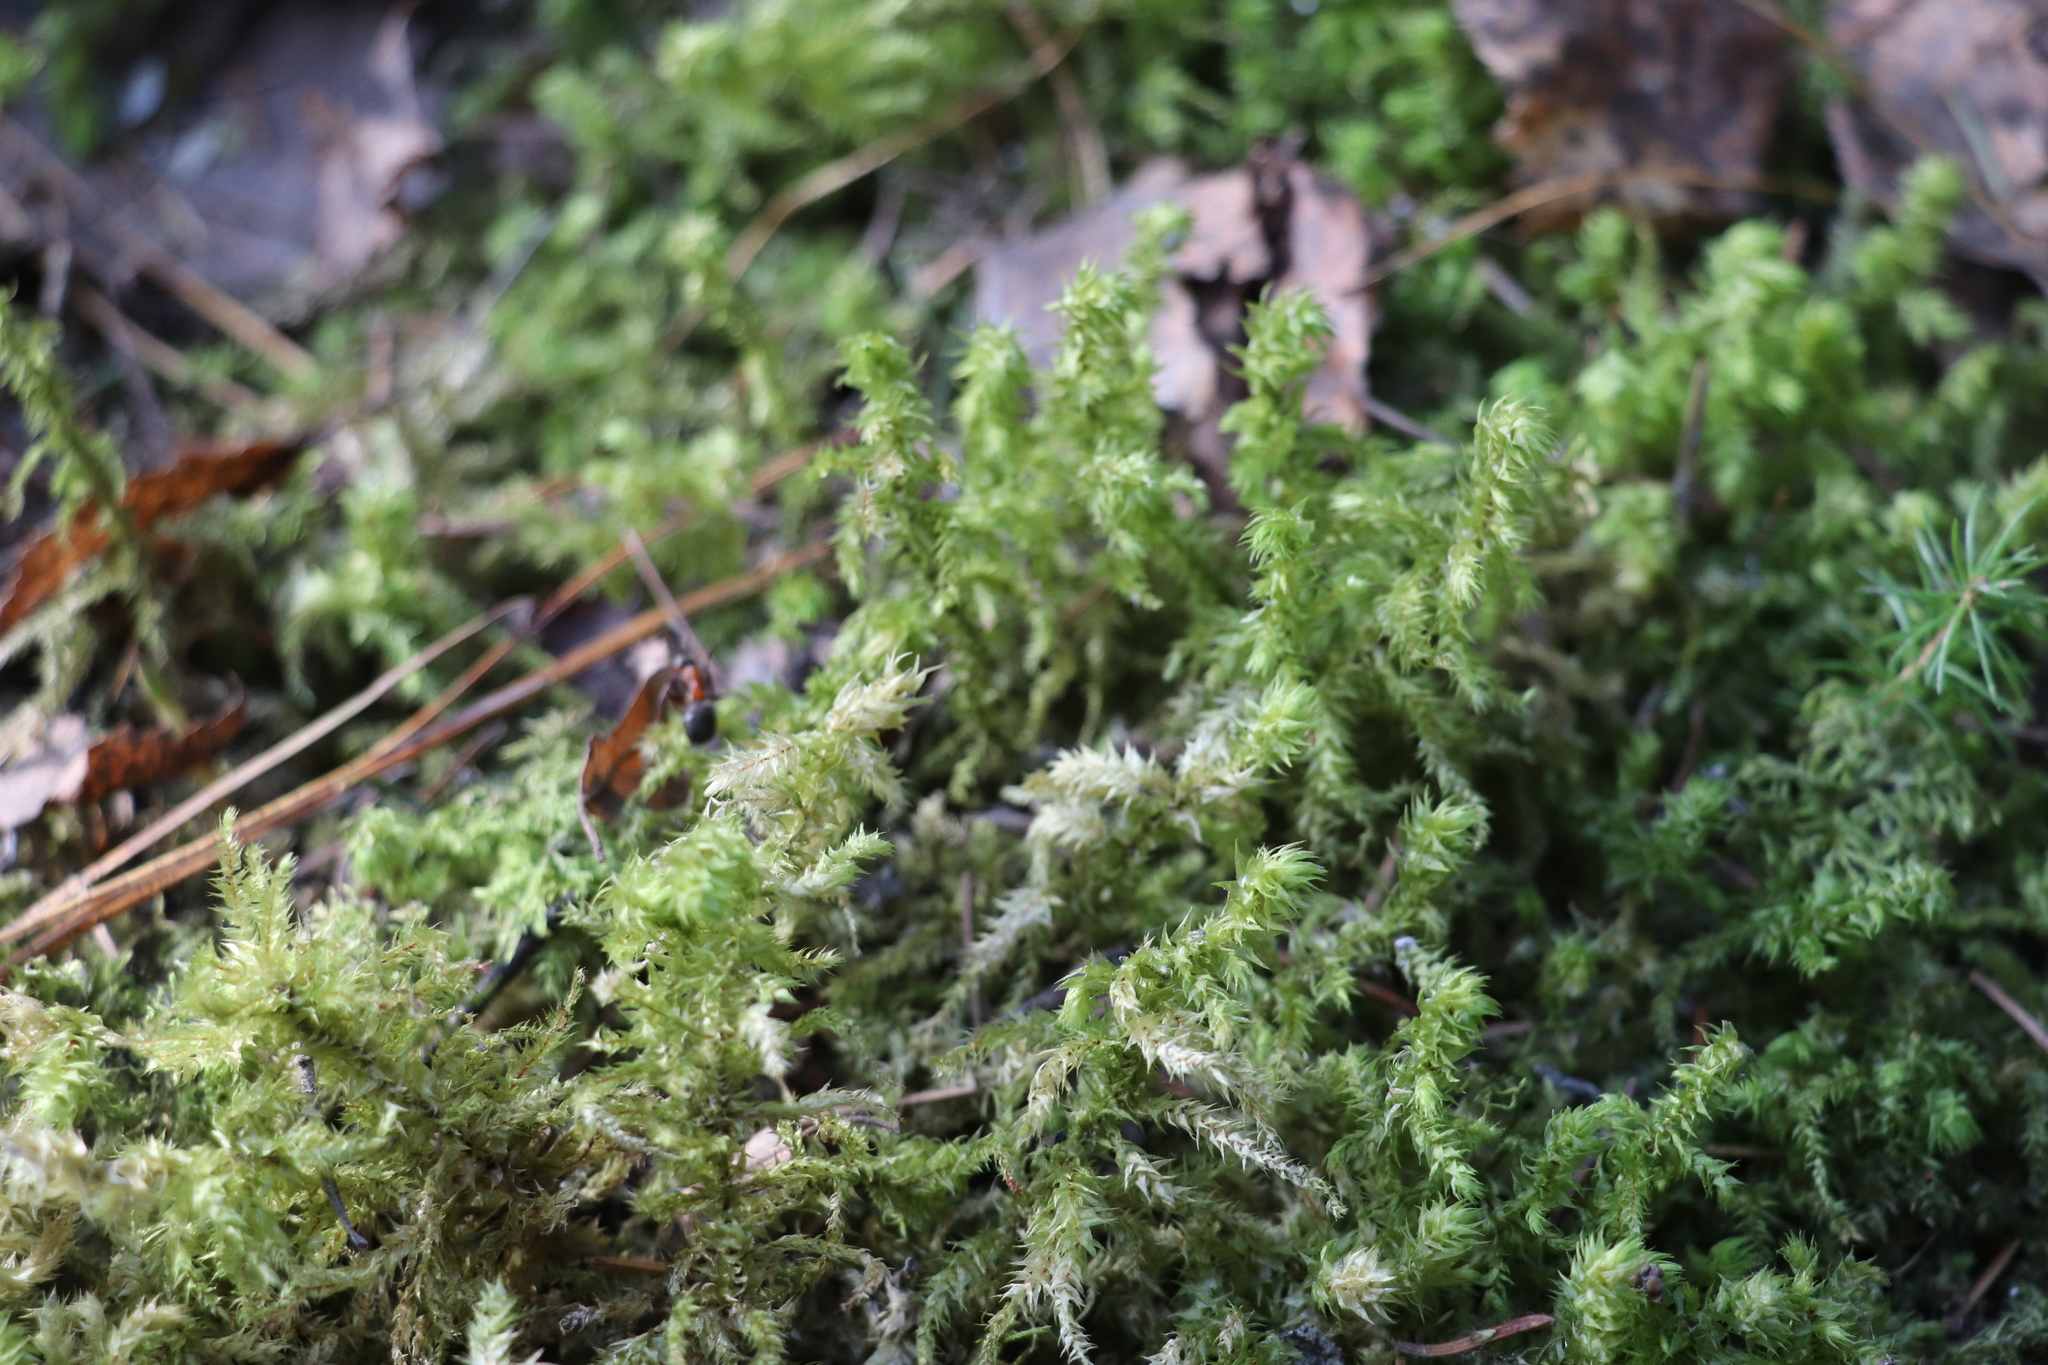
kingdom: Plantae
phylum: Bryophyta
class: Bryopsida
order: Hypnales
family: Hylocomiaceae
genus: Hylocomiadelphus
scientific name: Hylocomiadelphus triquetrus
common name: Rough goose neck moss
